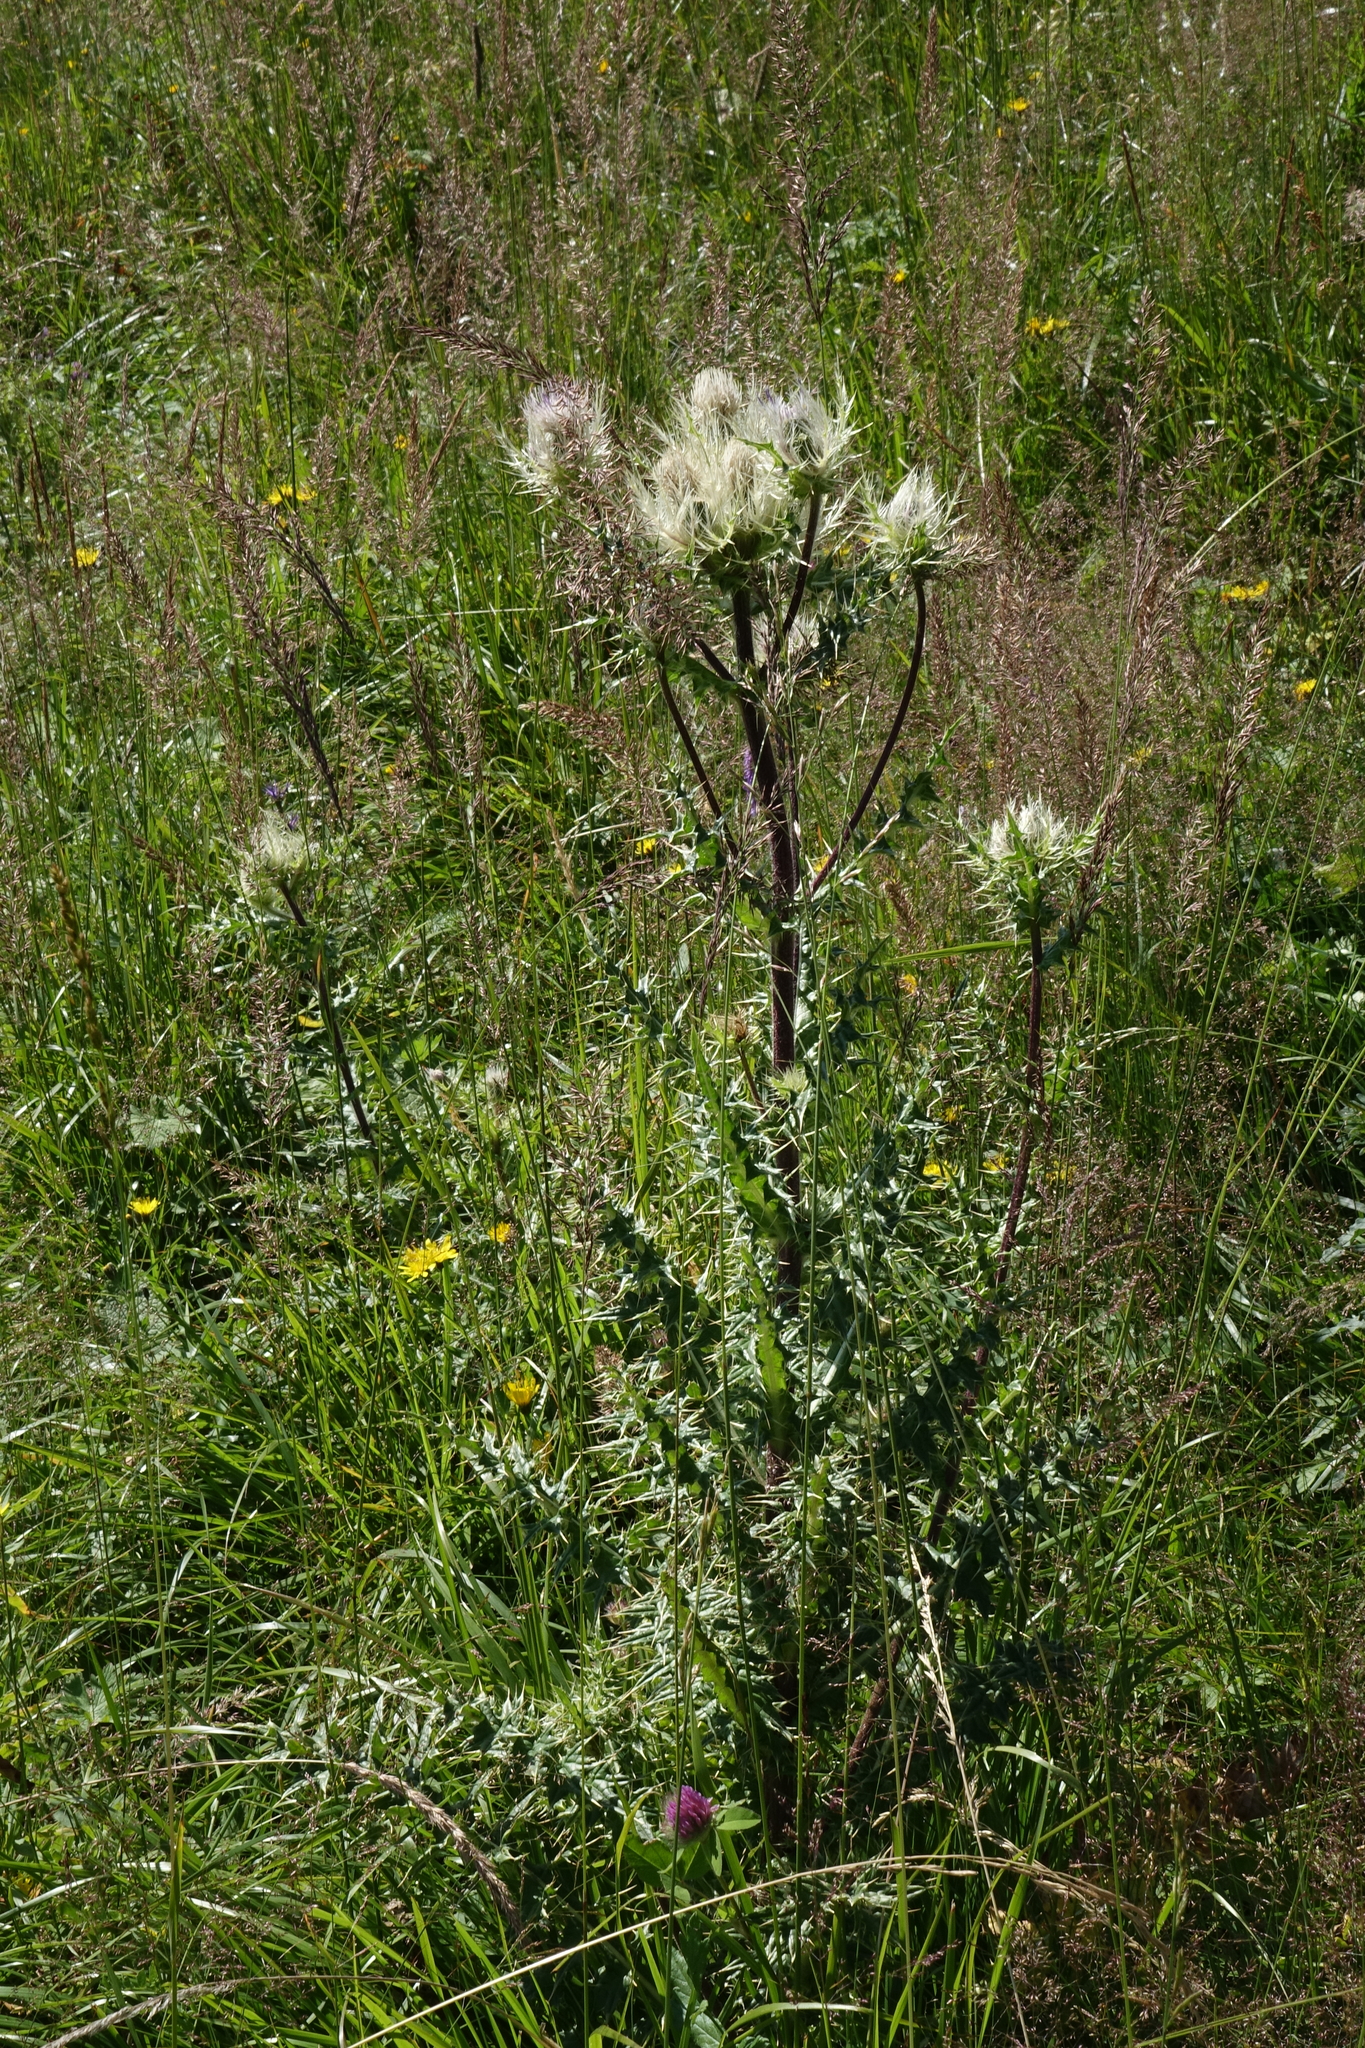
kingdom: Plantae
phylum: Tracheophyta
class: Magnoliopsida
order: Asterales
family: Asteraceae
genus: Cirsium
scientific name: Cirsium obvallatum
